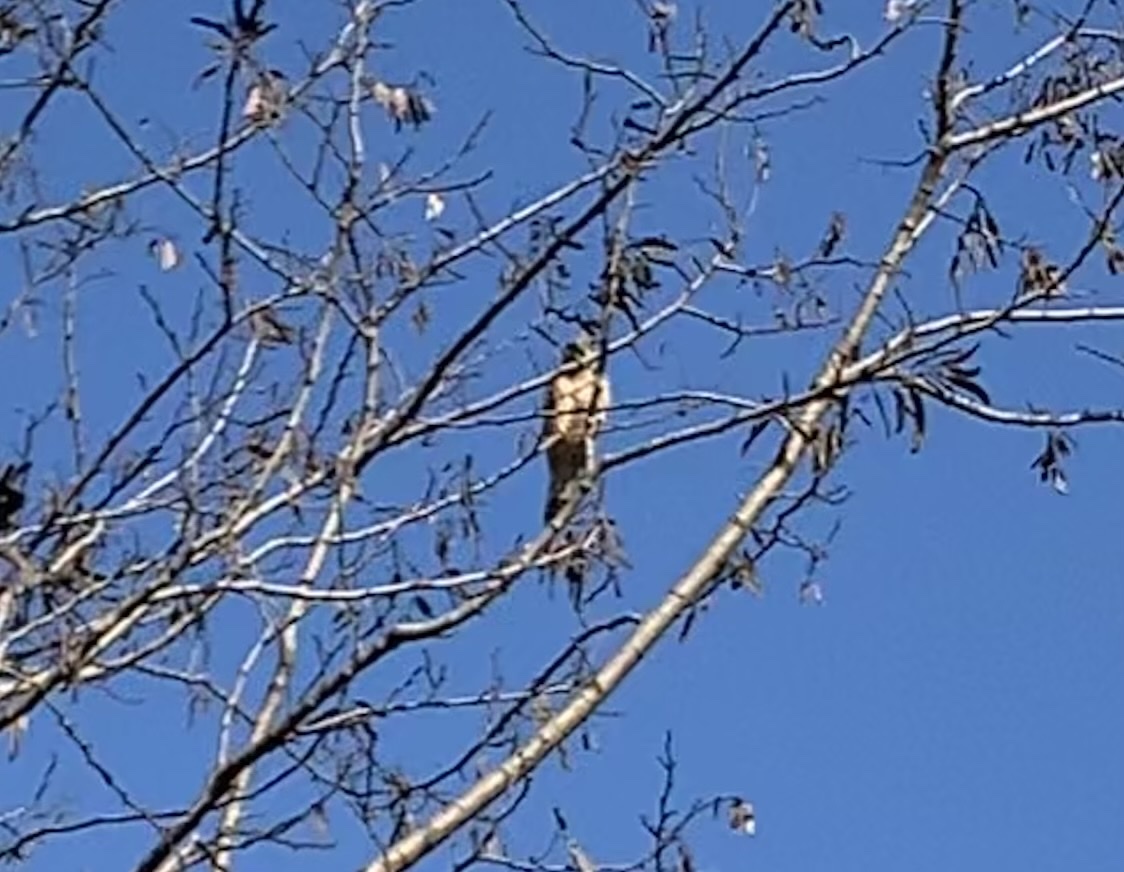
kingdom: Animalia
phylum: Chordata
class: Aves
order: Falconiformes
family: Falconidae
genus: Falco
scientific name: Falco tinnunculus
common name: Common kestrel
